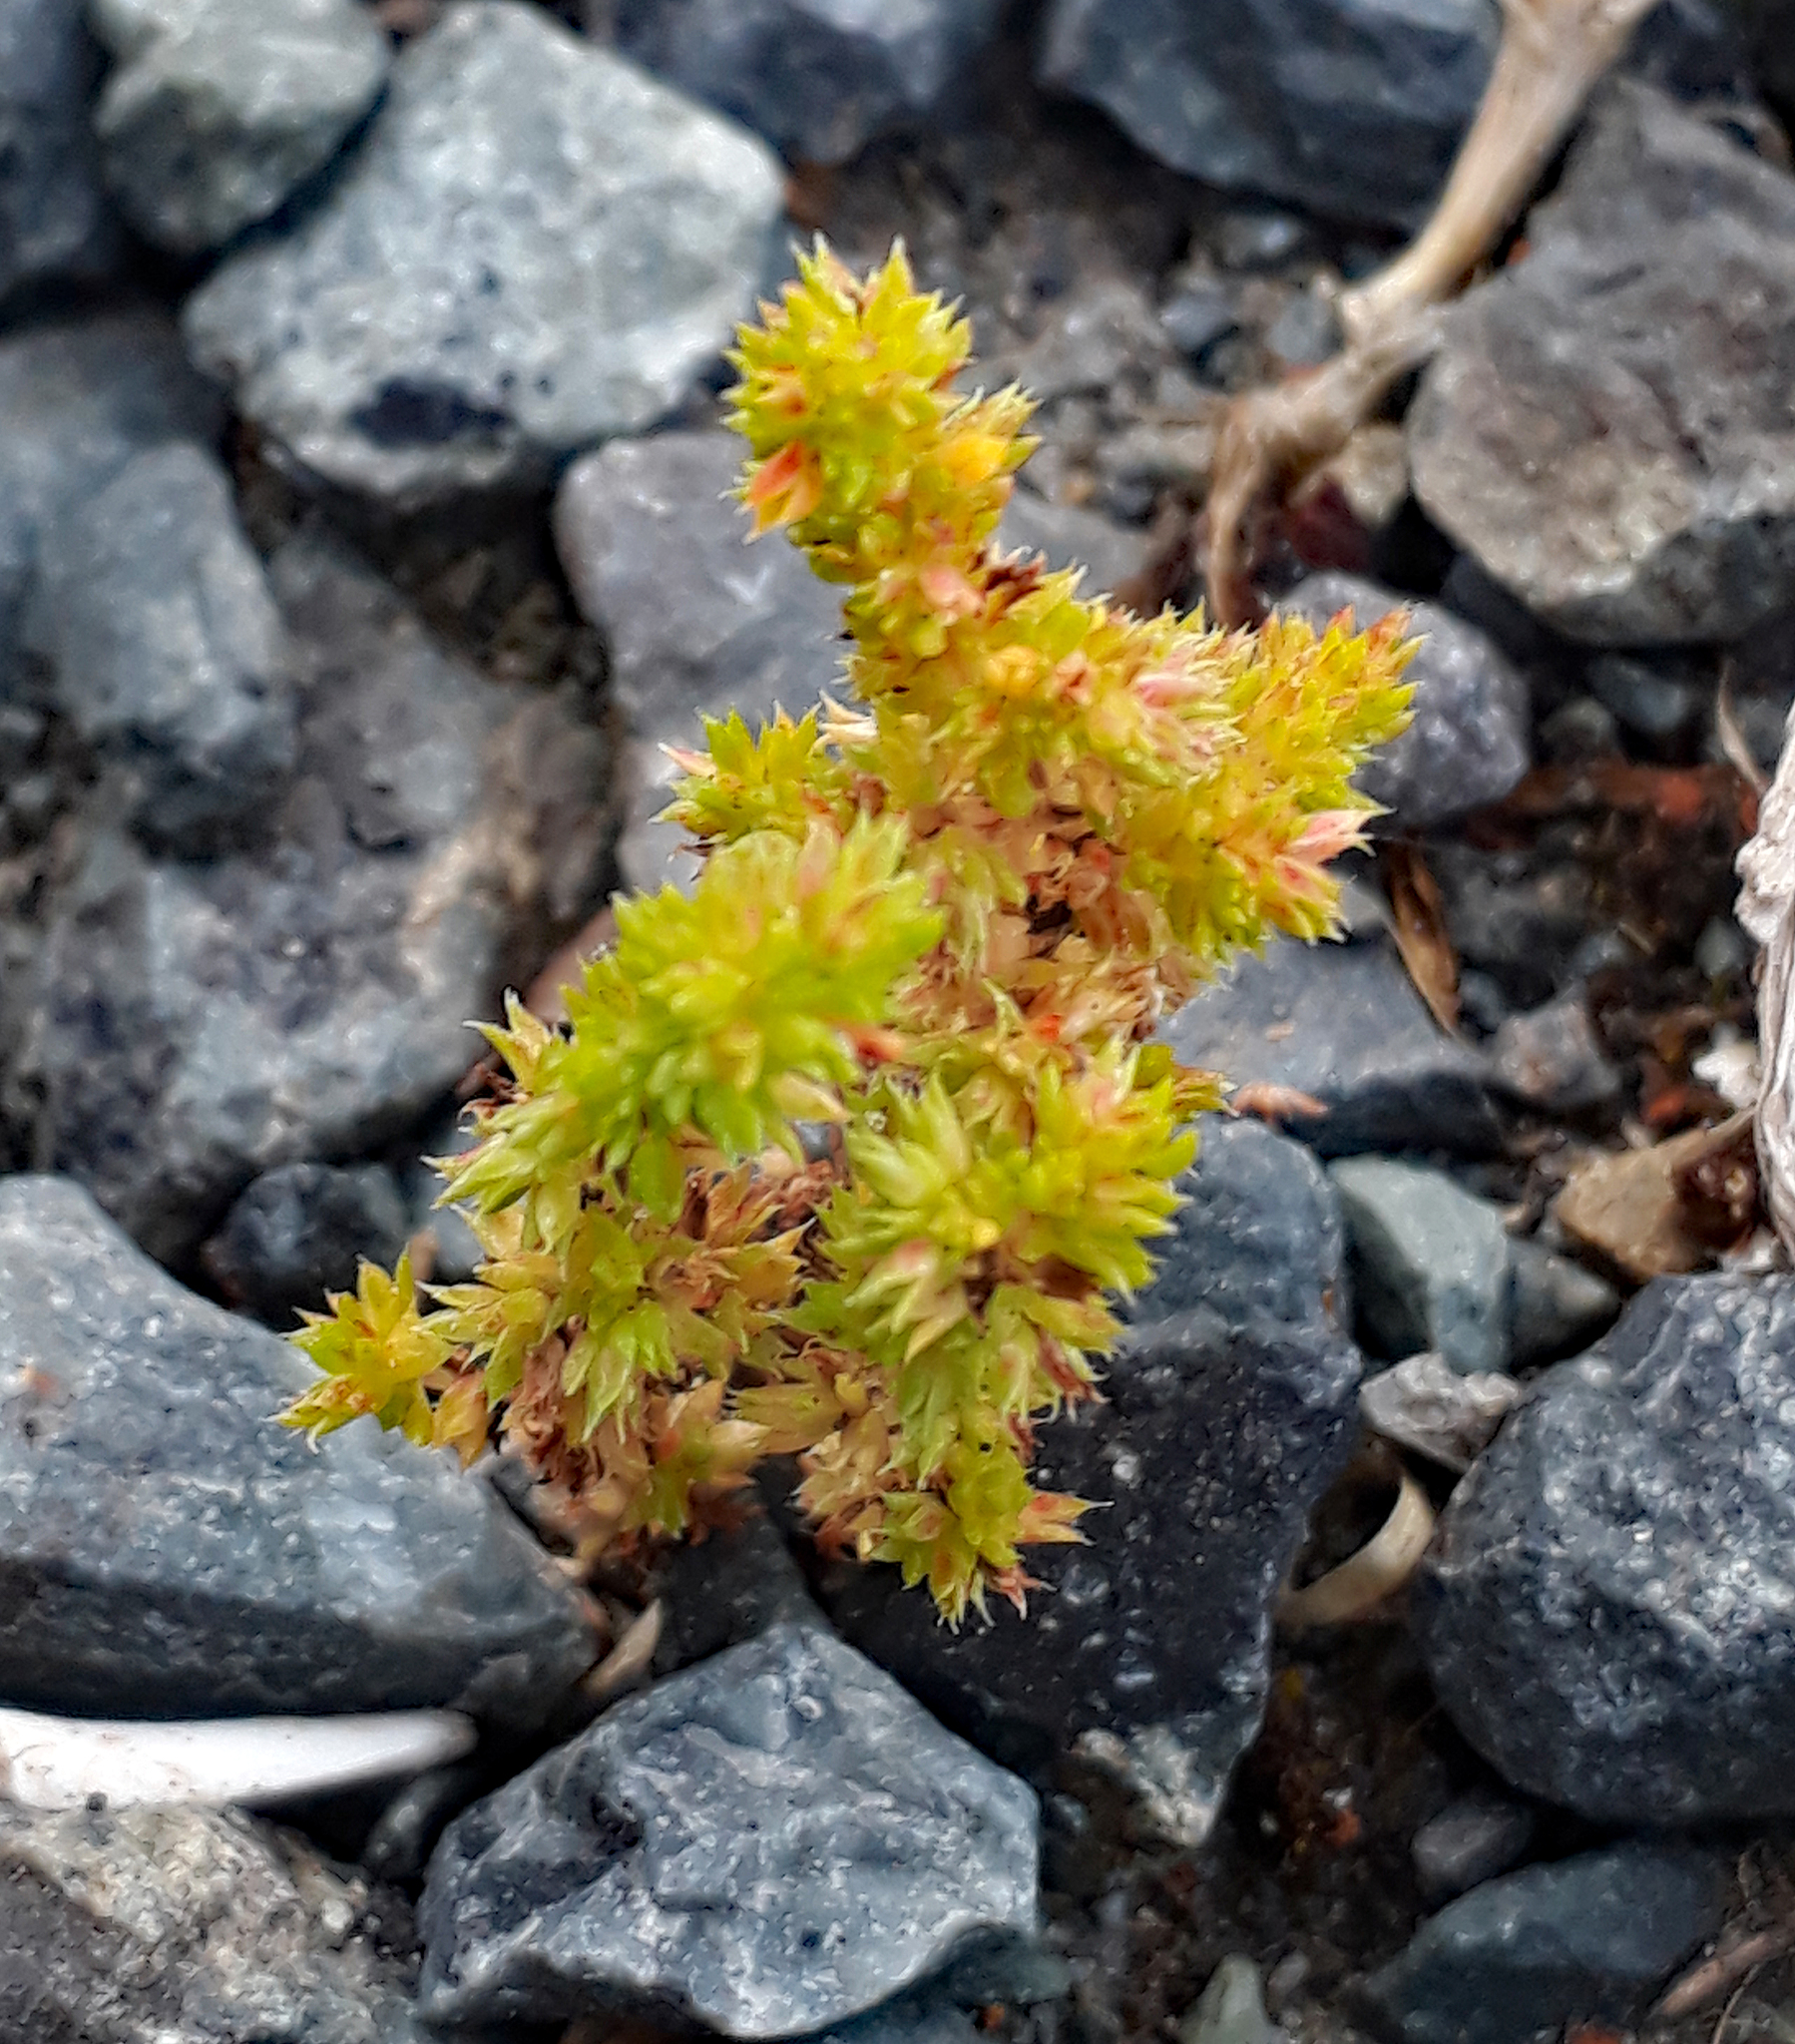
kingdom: Plantae
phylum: Tracheophyta
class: Magnoliopsida
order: Saxifragales
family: Crassulaceae
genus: Crassula
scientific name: Crassula alata
